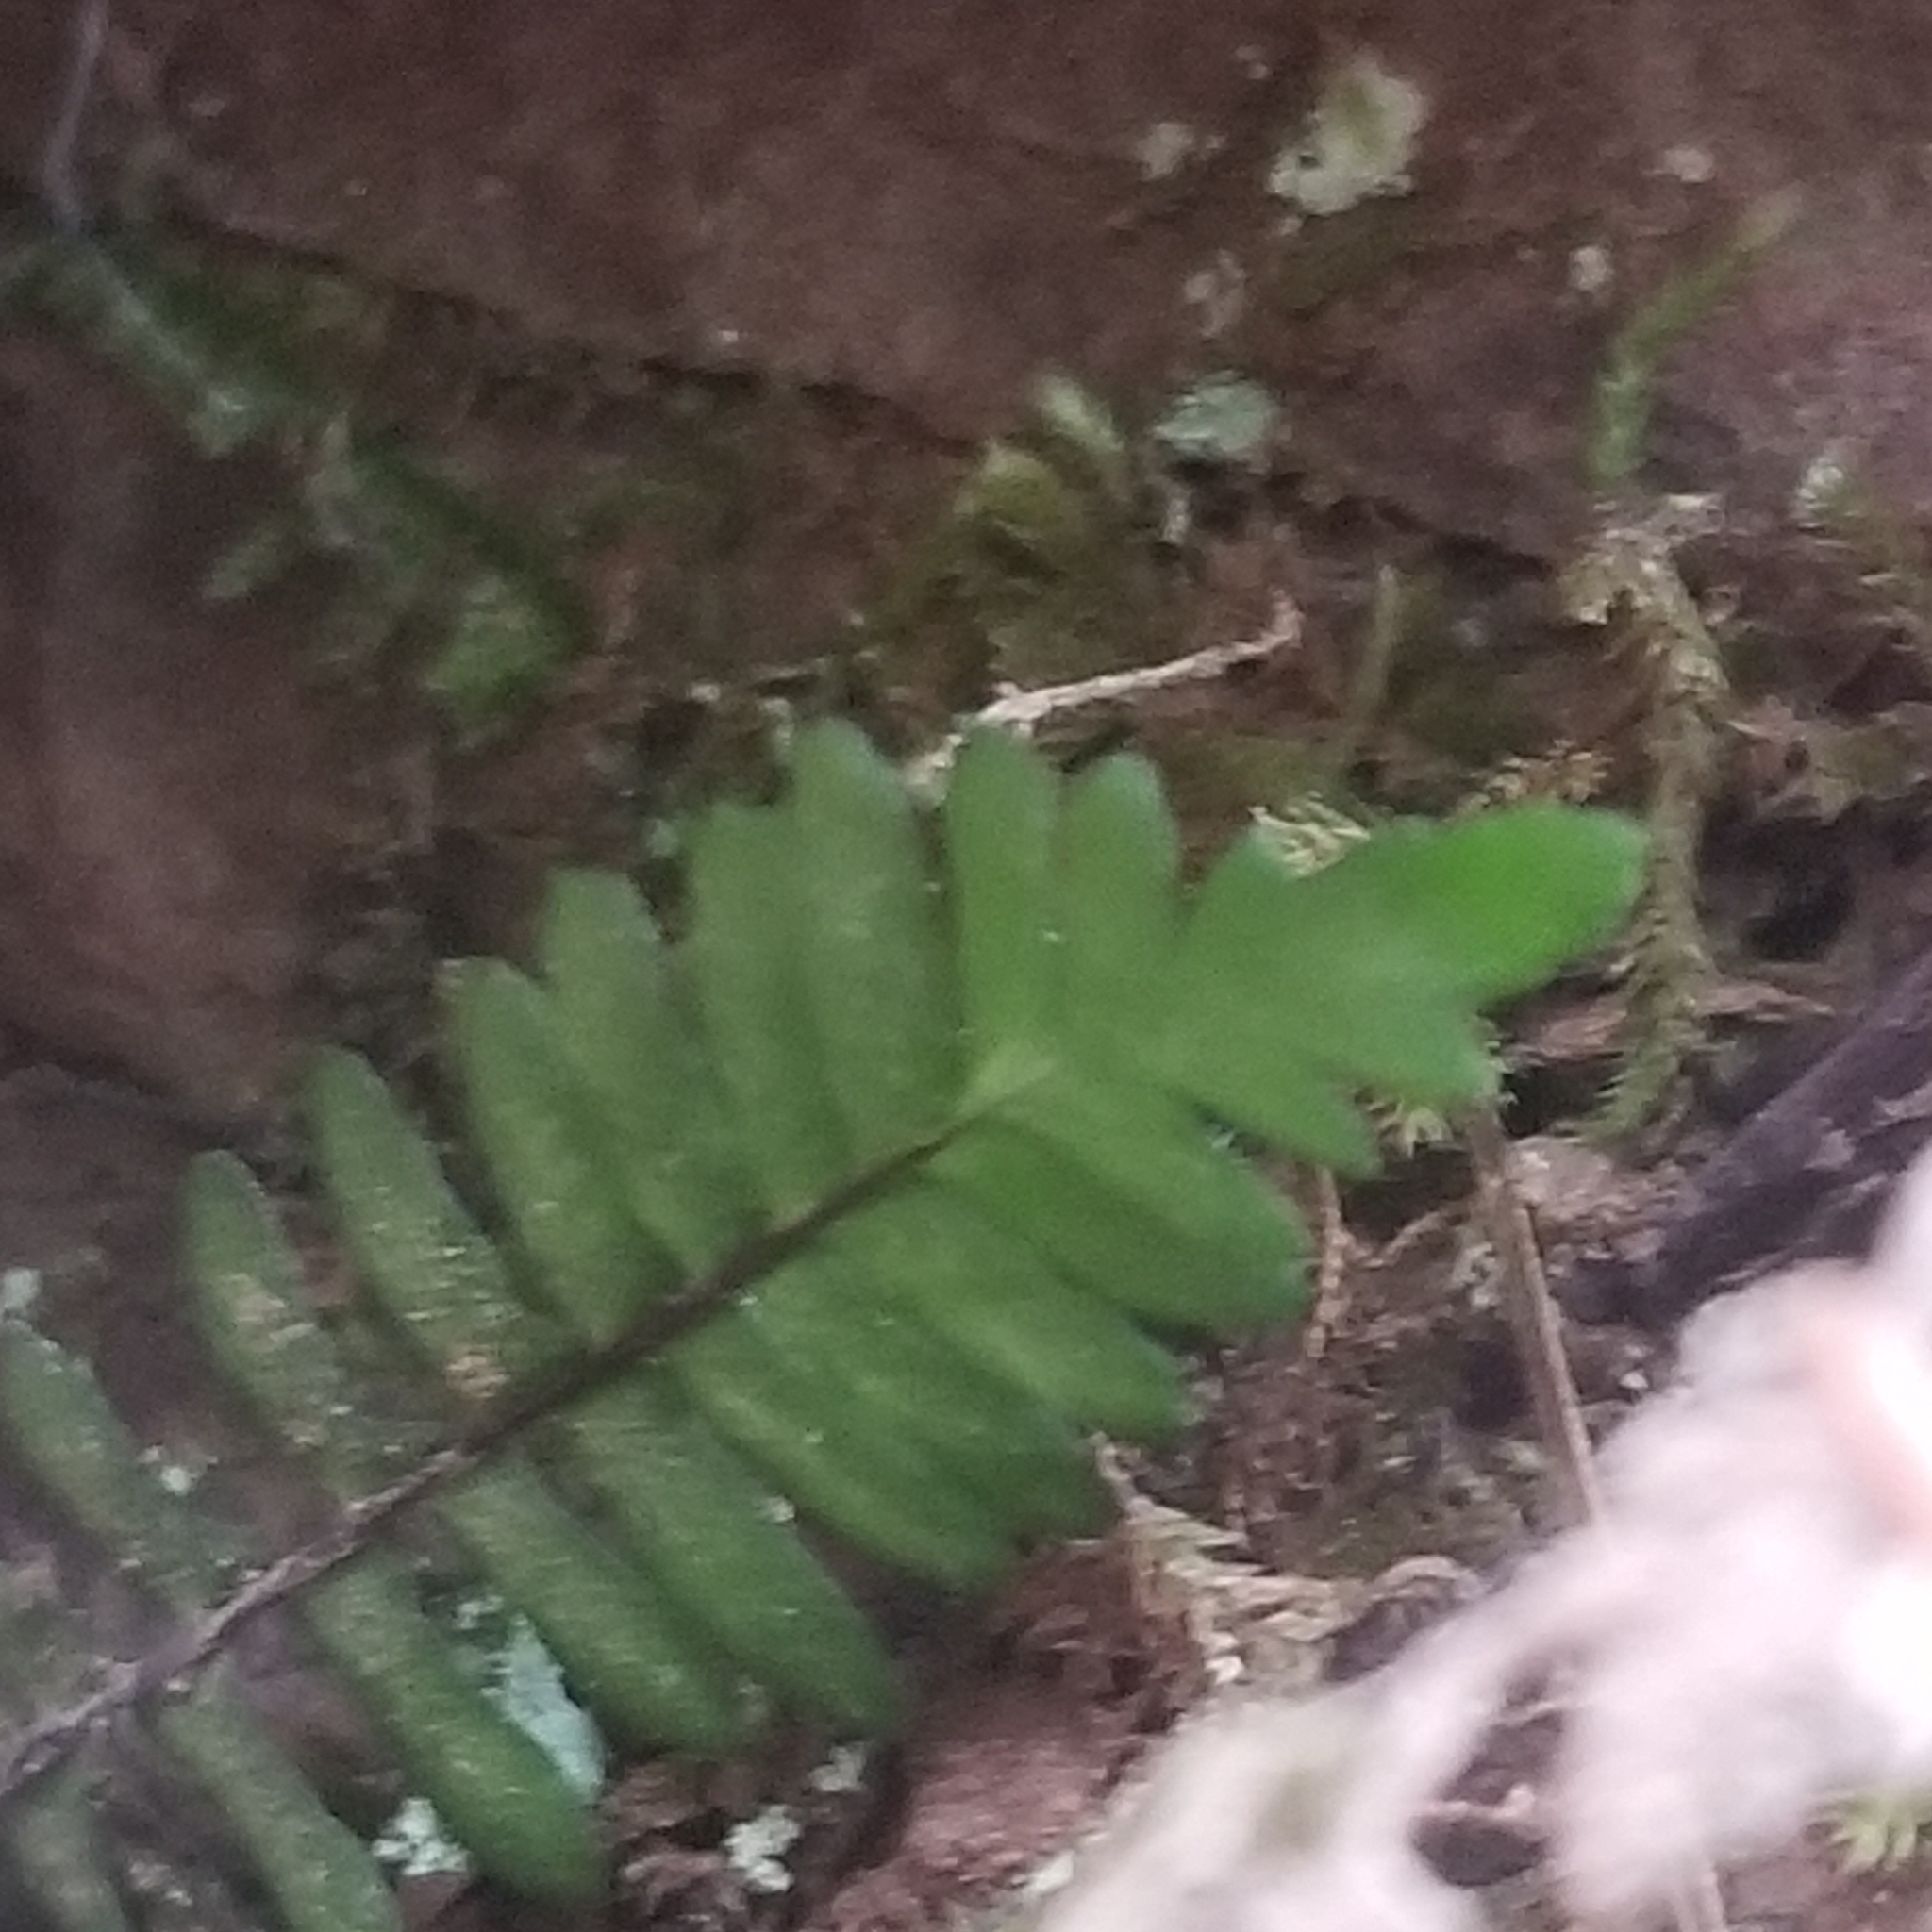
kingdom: Plantae
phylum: Tracheophyta
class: Polypodiopsida
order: Polypodiales
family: Aspleniaceae
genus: Asplenium
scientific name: Asplenium platyneuron
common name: Ebony spleenwort
